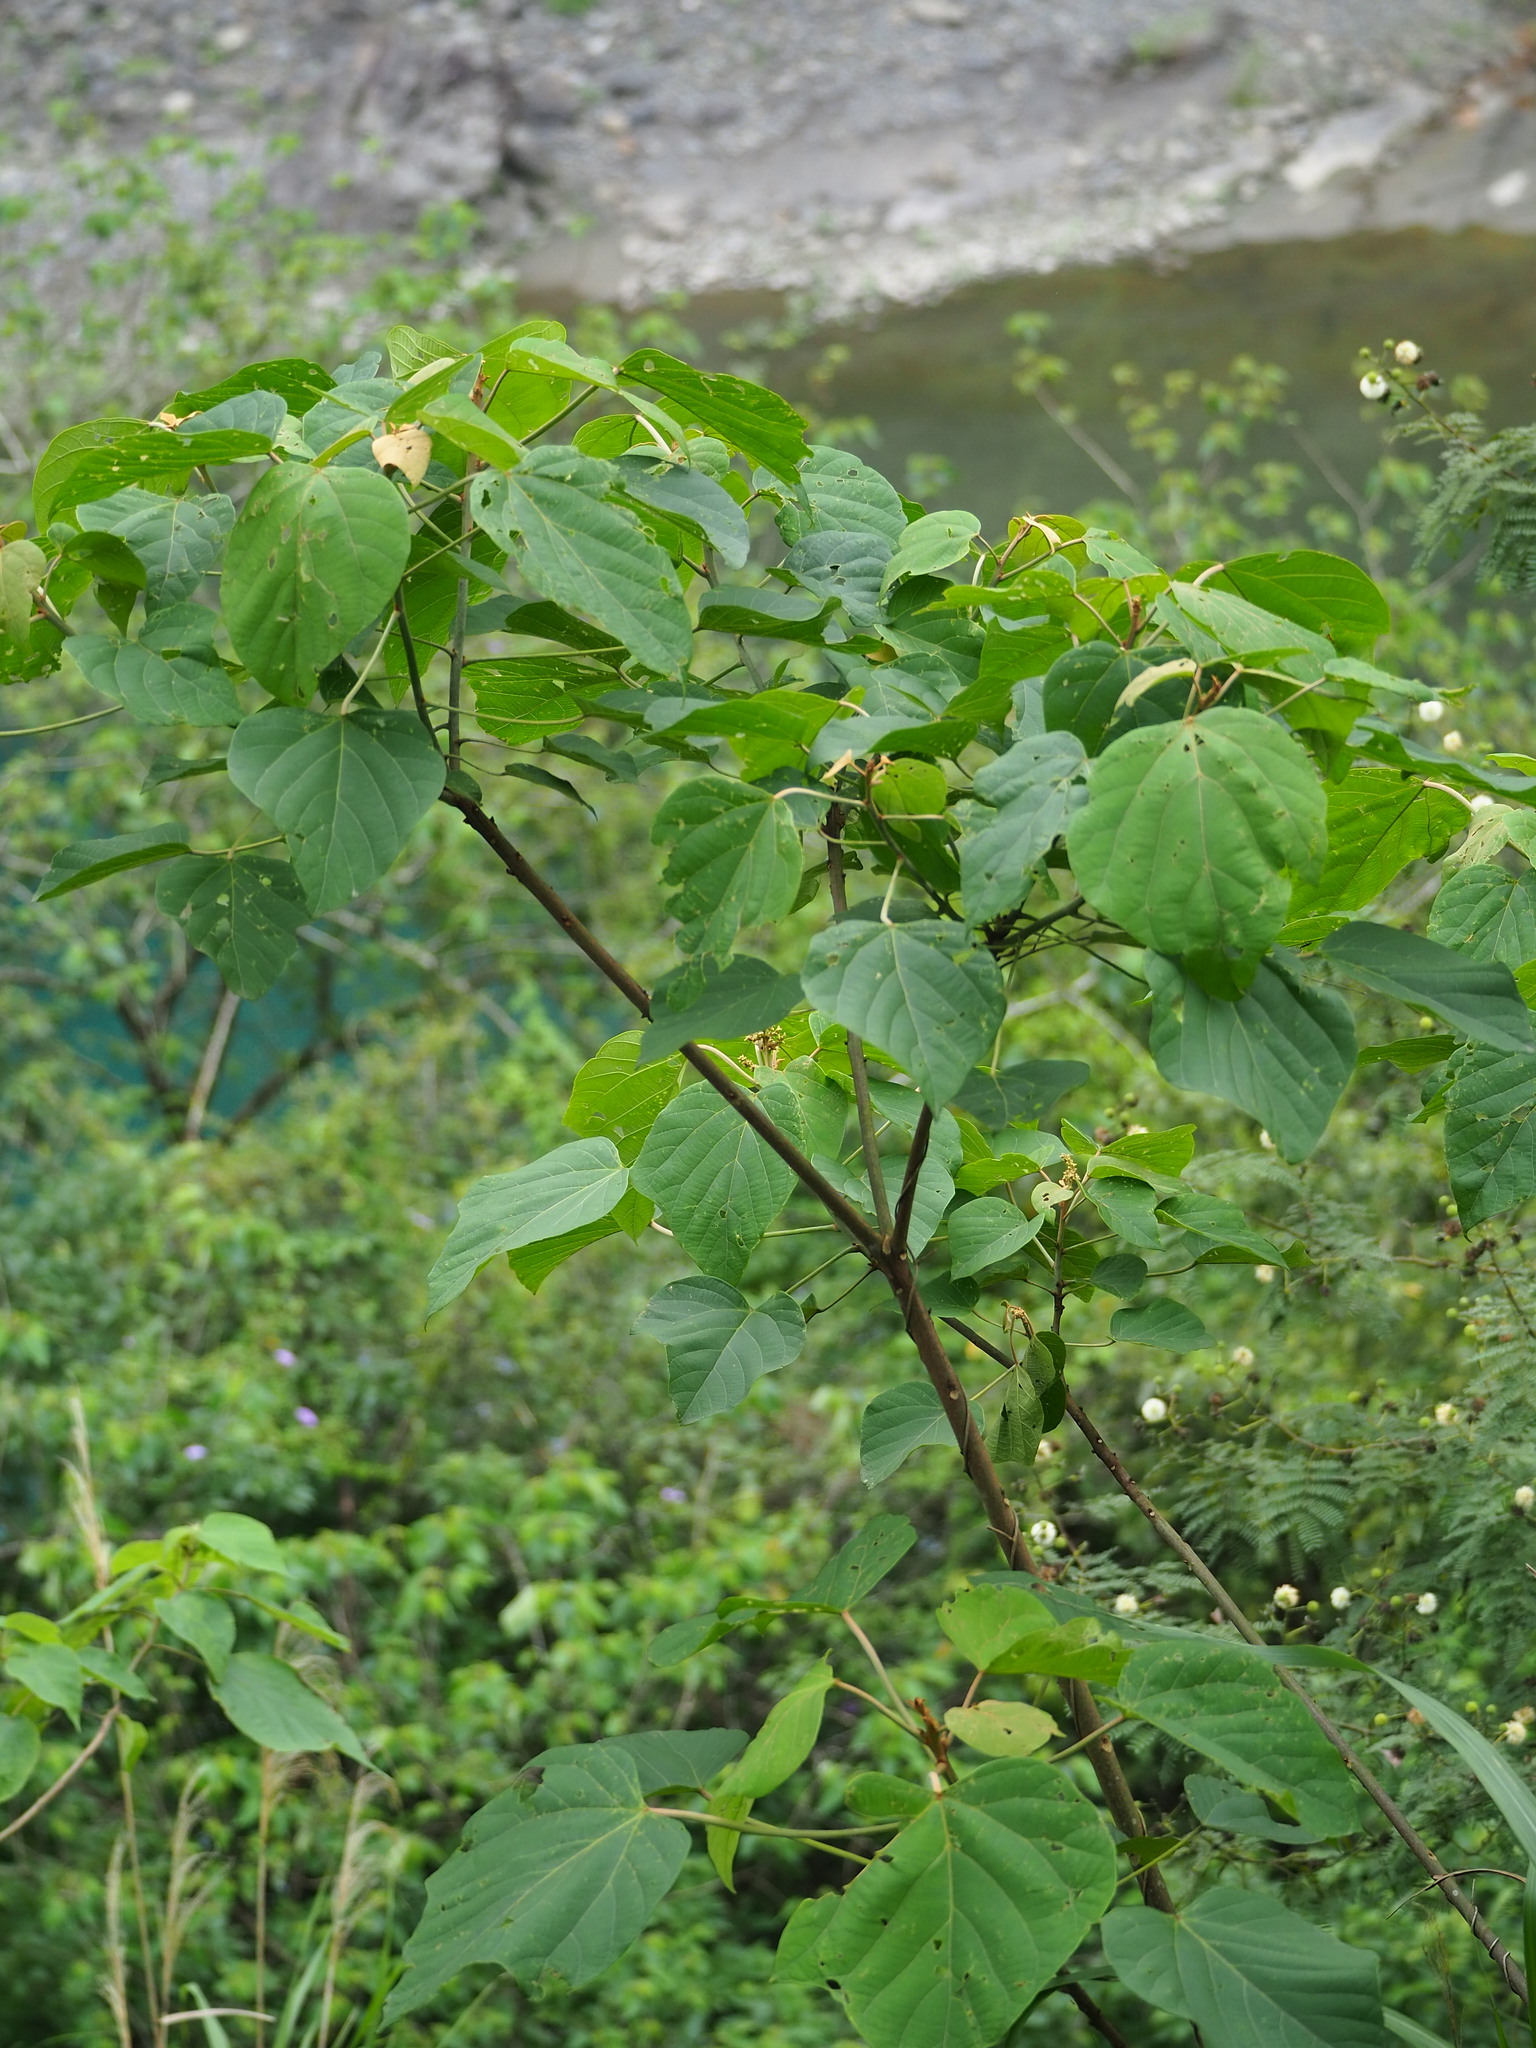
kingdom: Plantae
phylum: Tracheophyta
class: Magnoliopsida
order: Malpighiales
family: Euphorbiaceae
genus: Mallotus
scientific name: Mallotus japonicus
